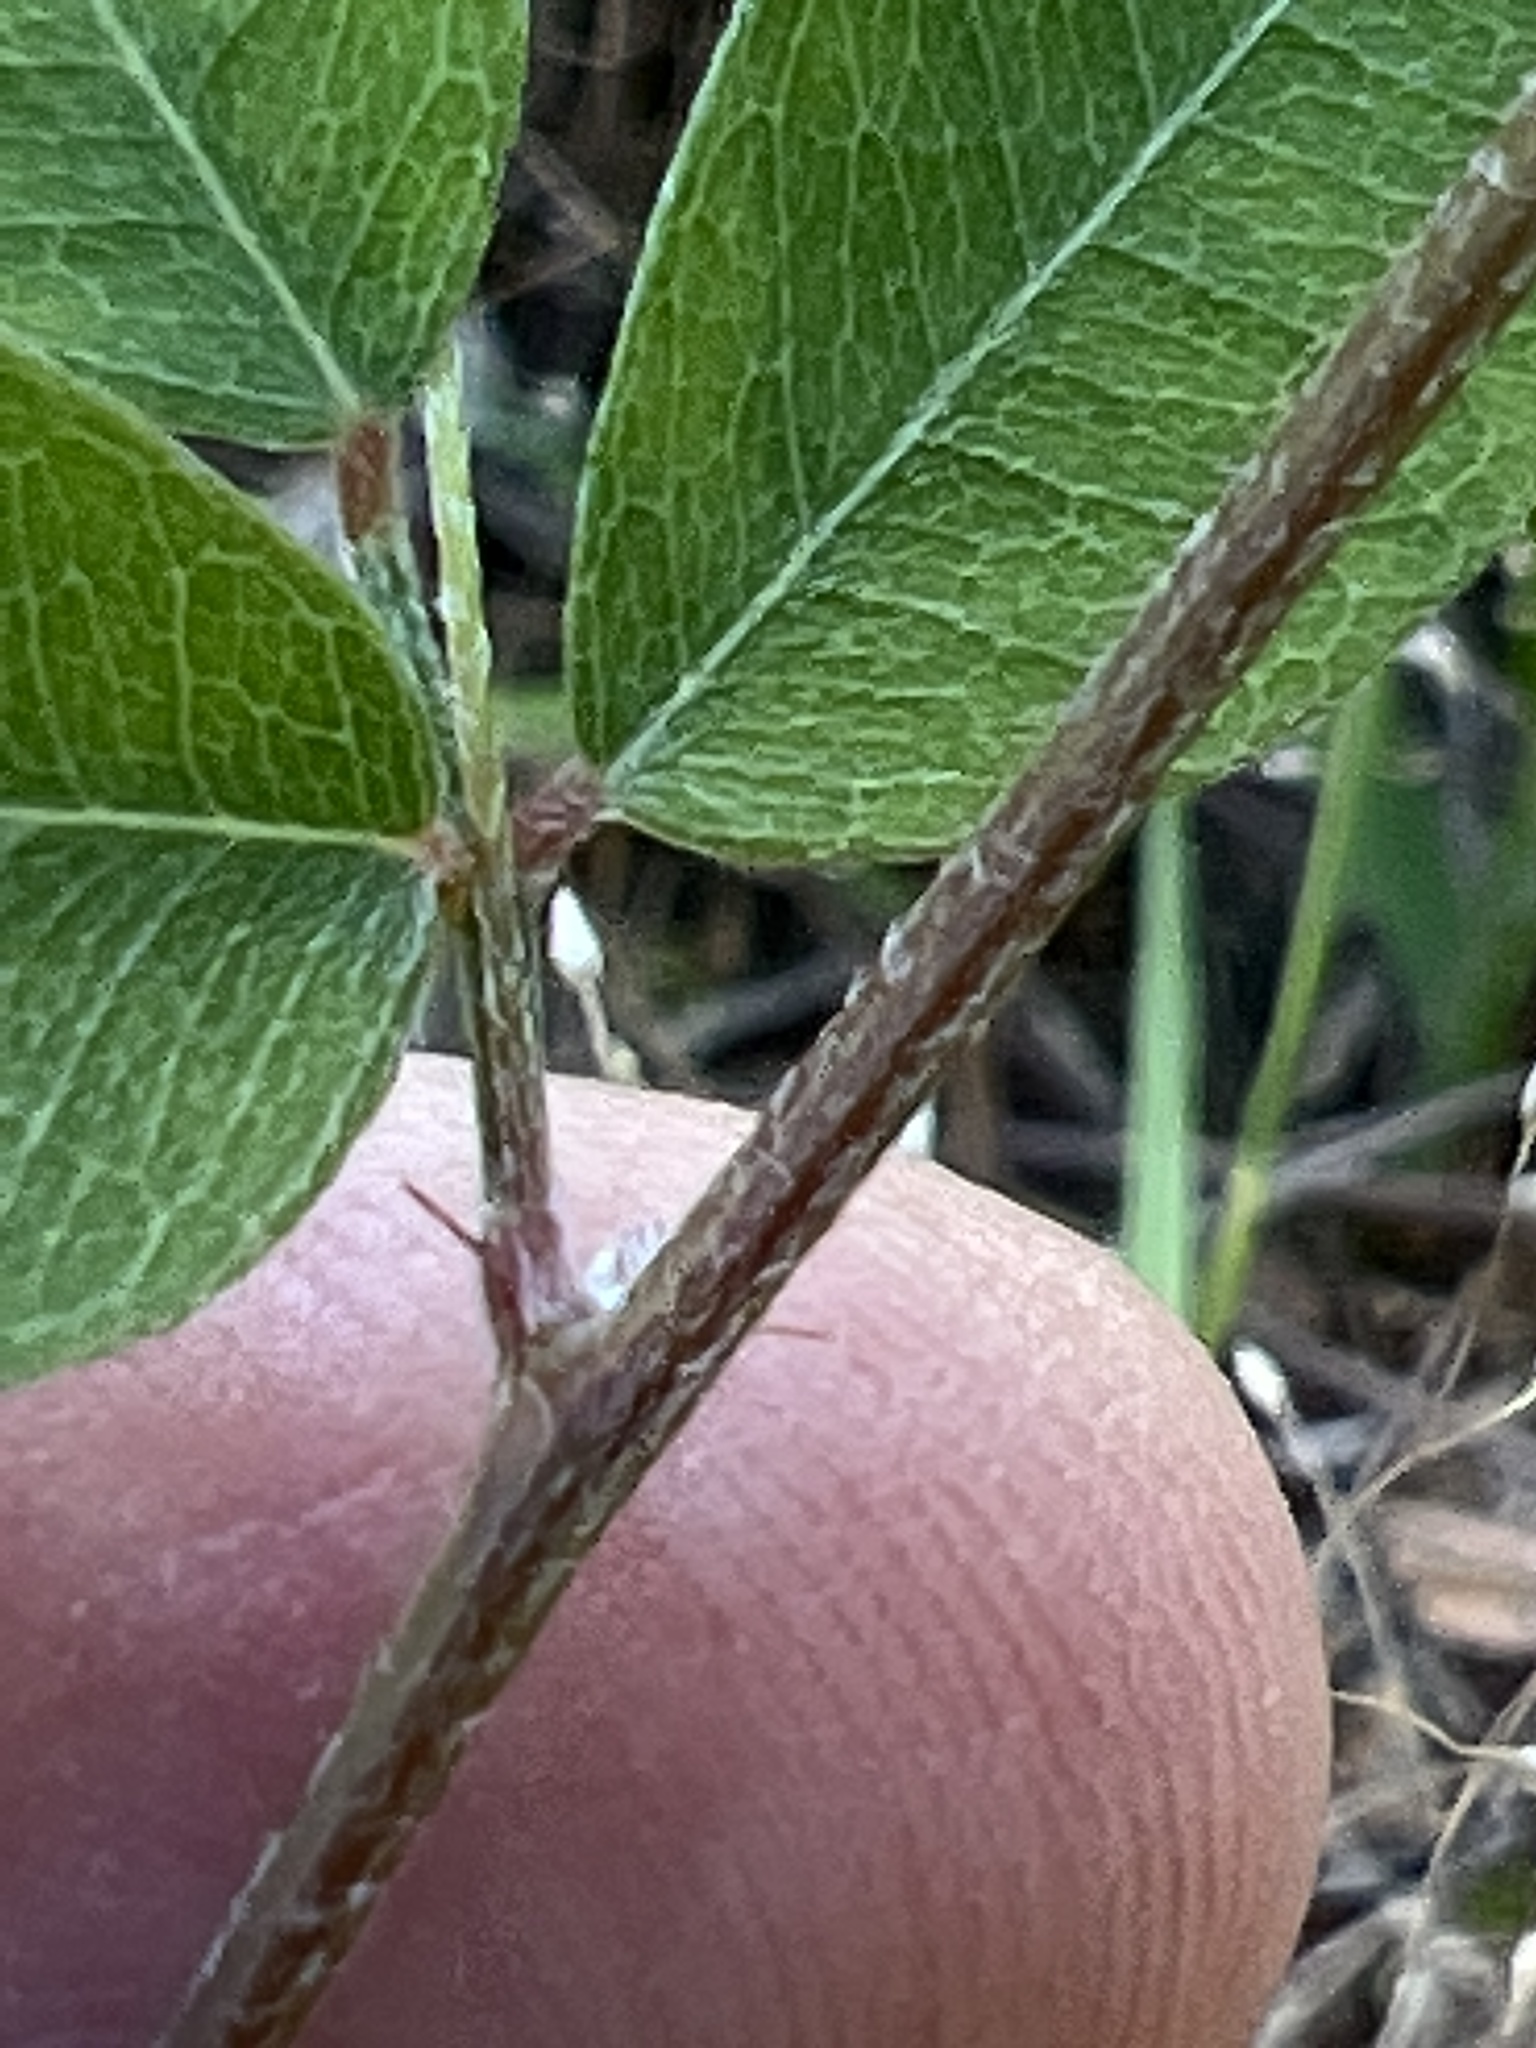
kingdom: Plantae
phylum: Tracheophyta
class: Magnoliopsida
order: Fabales
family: Fabaceae
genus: Lespedeza
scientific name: Lespedeza repens
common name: Creeping bush-clover
